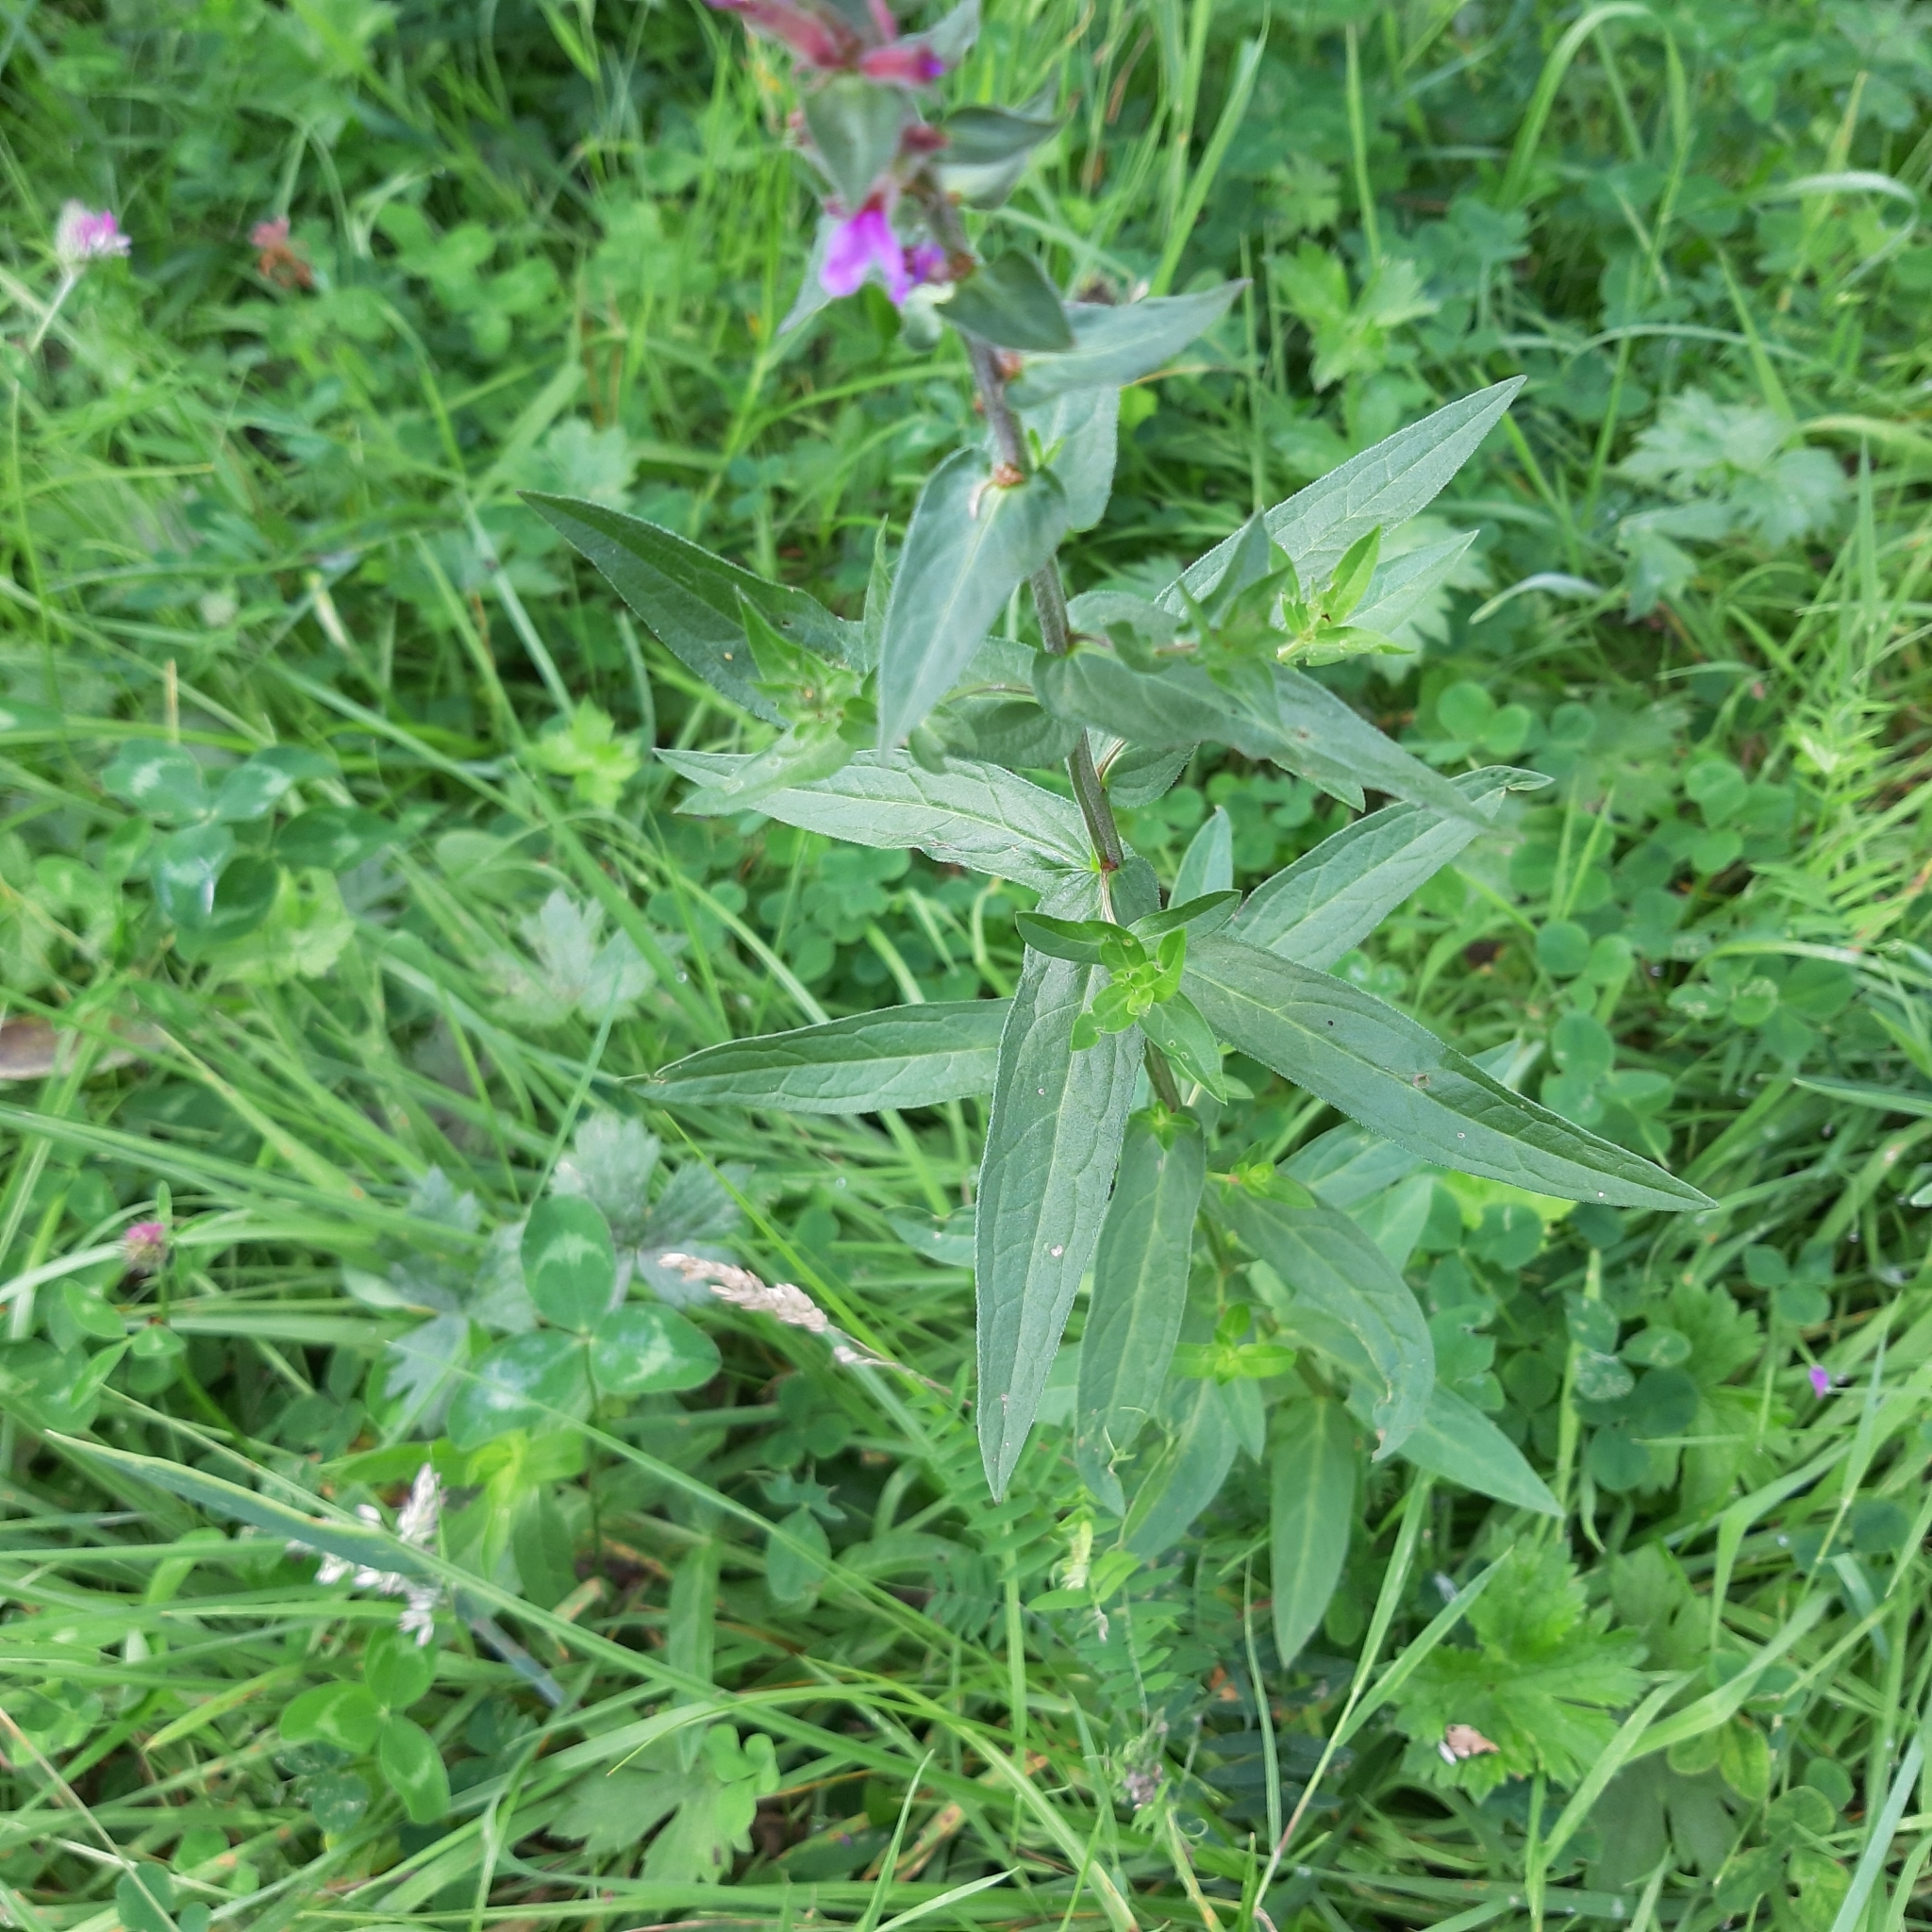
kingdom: Plantae
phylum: Tracheophyta
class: Magnoliopsida
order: Myrtales
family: Lythraceae
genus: Lythrum
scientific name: Lythrum salicaria
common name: Purple loosestrife
